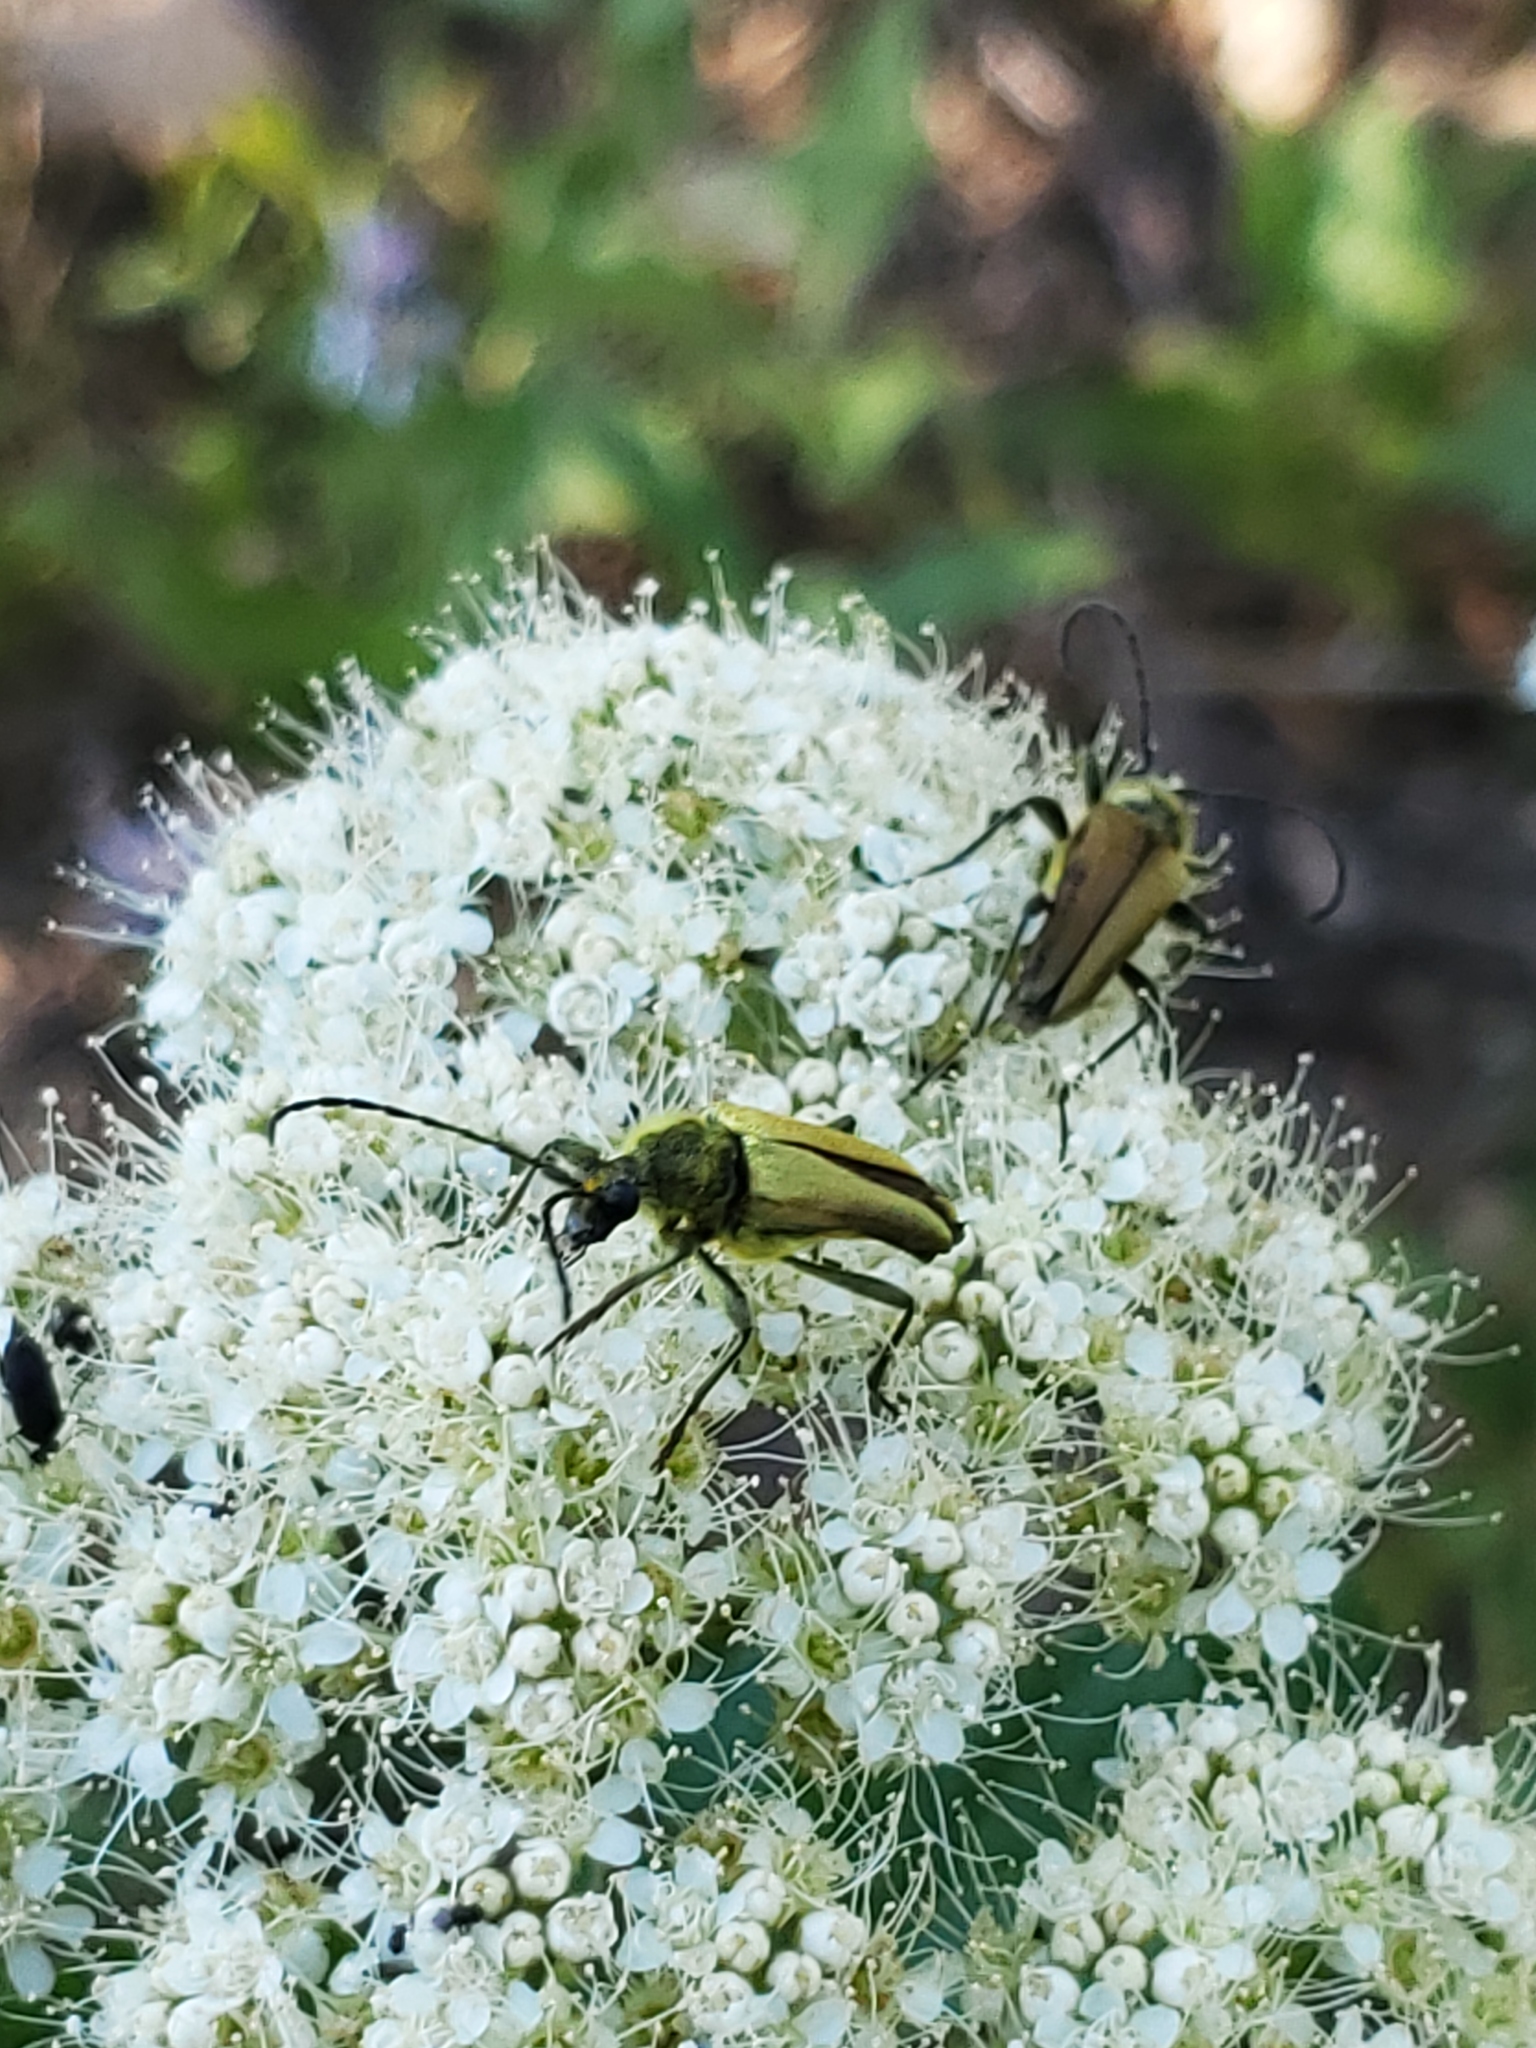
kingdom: Animalia
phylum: Arthropoda
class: Insecta
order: Coleoptera
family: Cerambycidae
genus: Cosmosalia
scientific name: Cosmosalia chrysocoma
